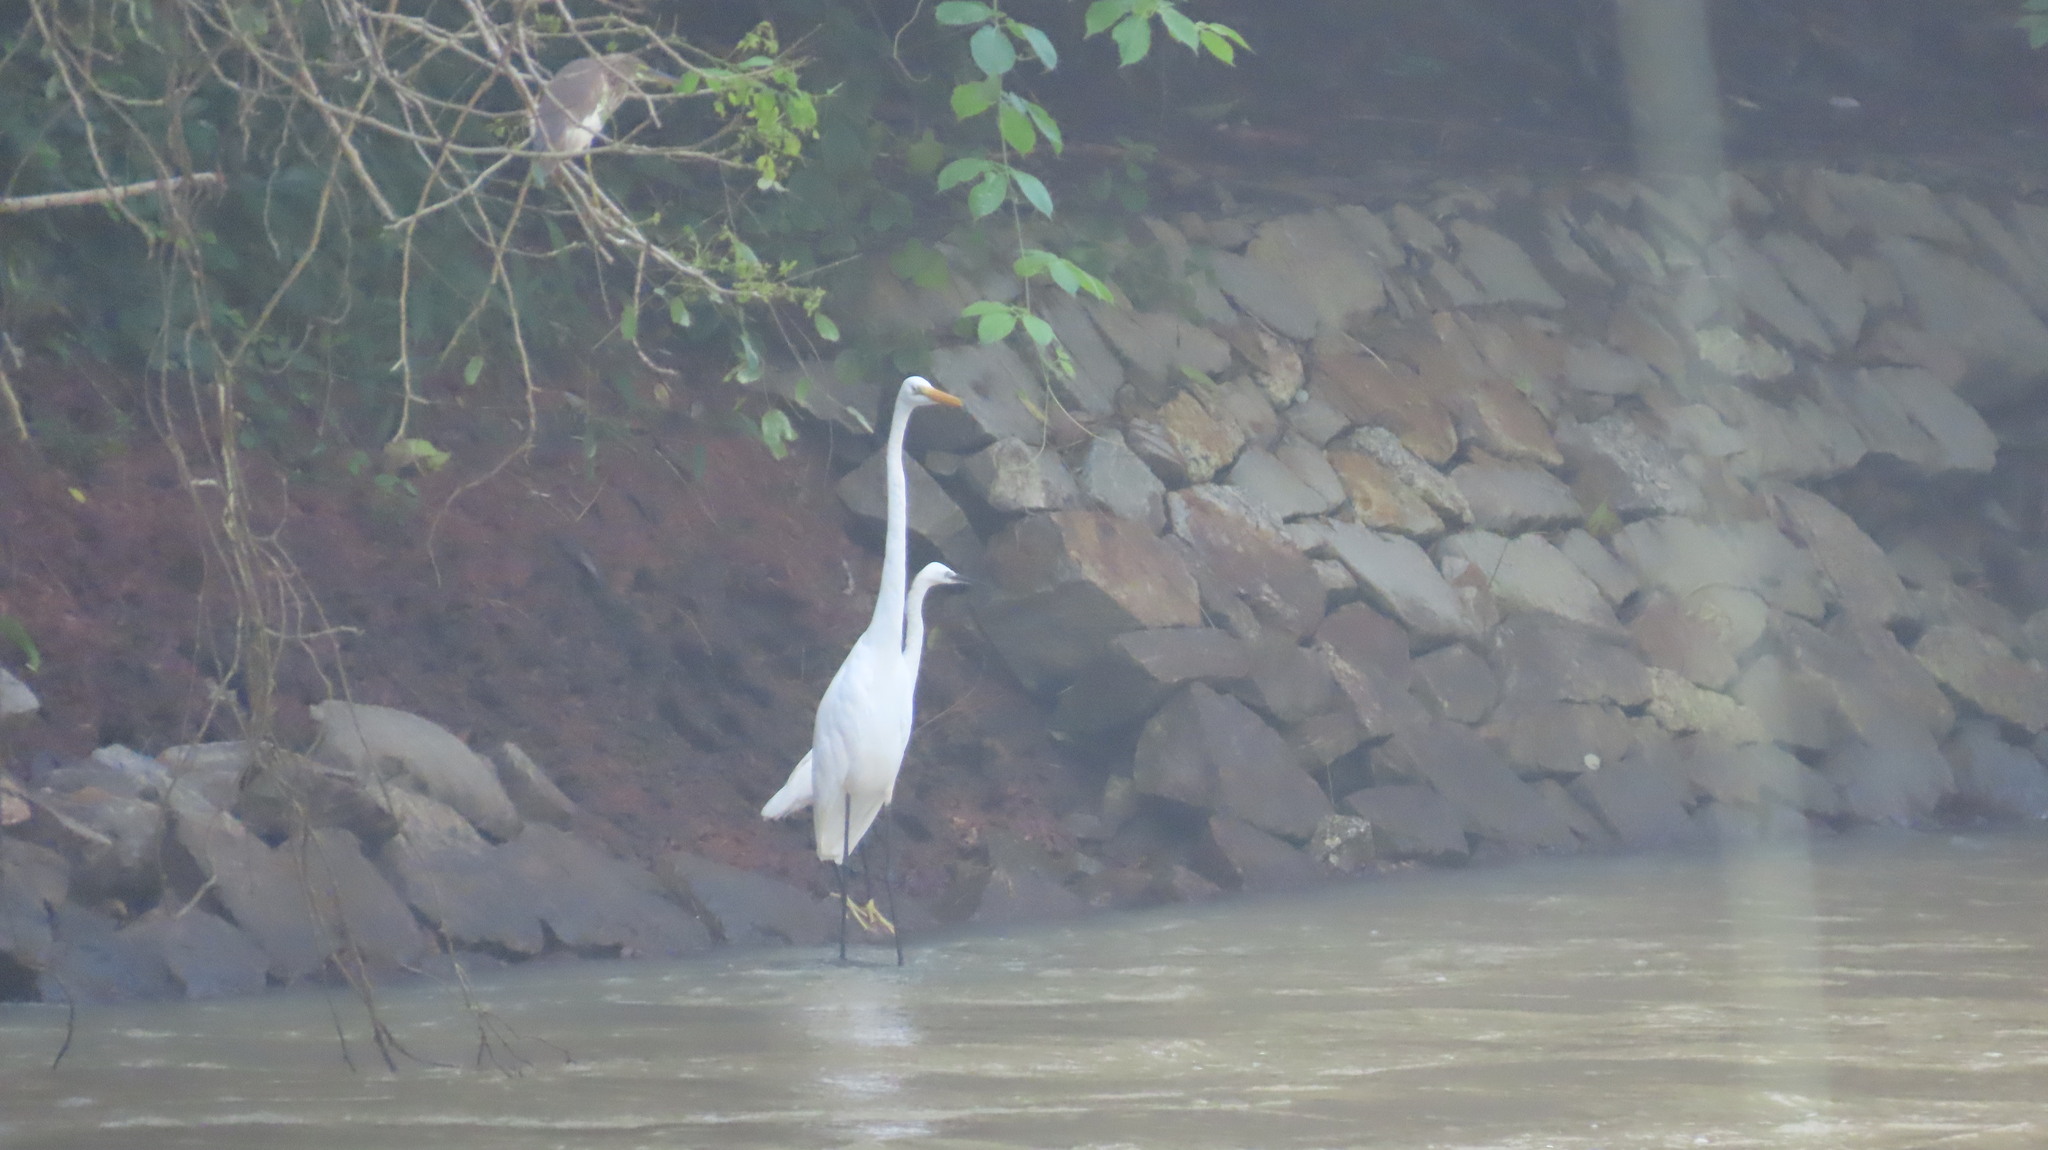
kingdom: Animalia
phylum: Chordata
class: Aves
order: Pelecaniformes
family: Ardeidae
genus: Ardeola
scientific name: Ardeola grayii
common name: Indian pond heron
